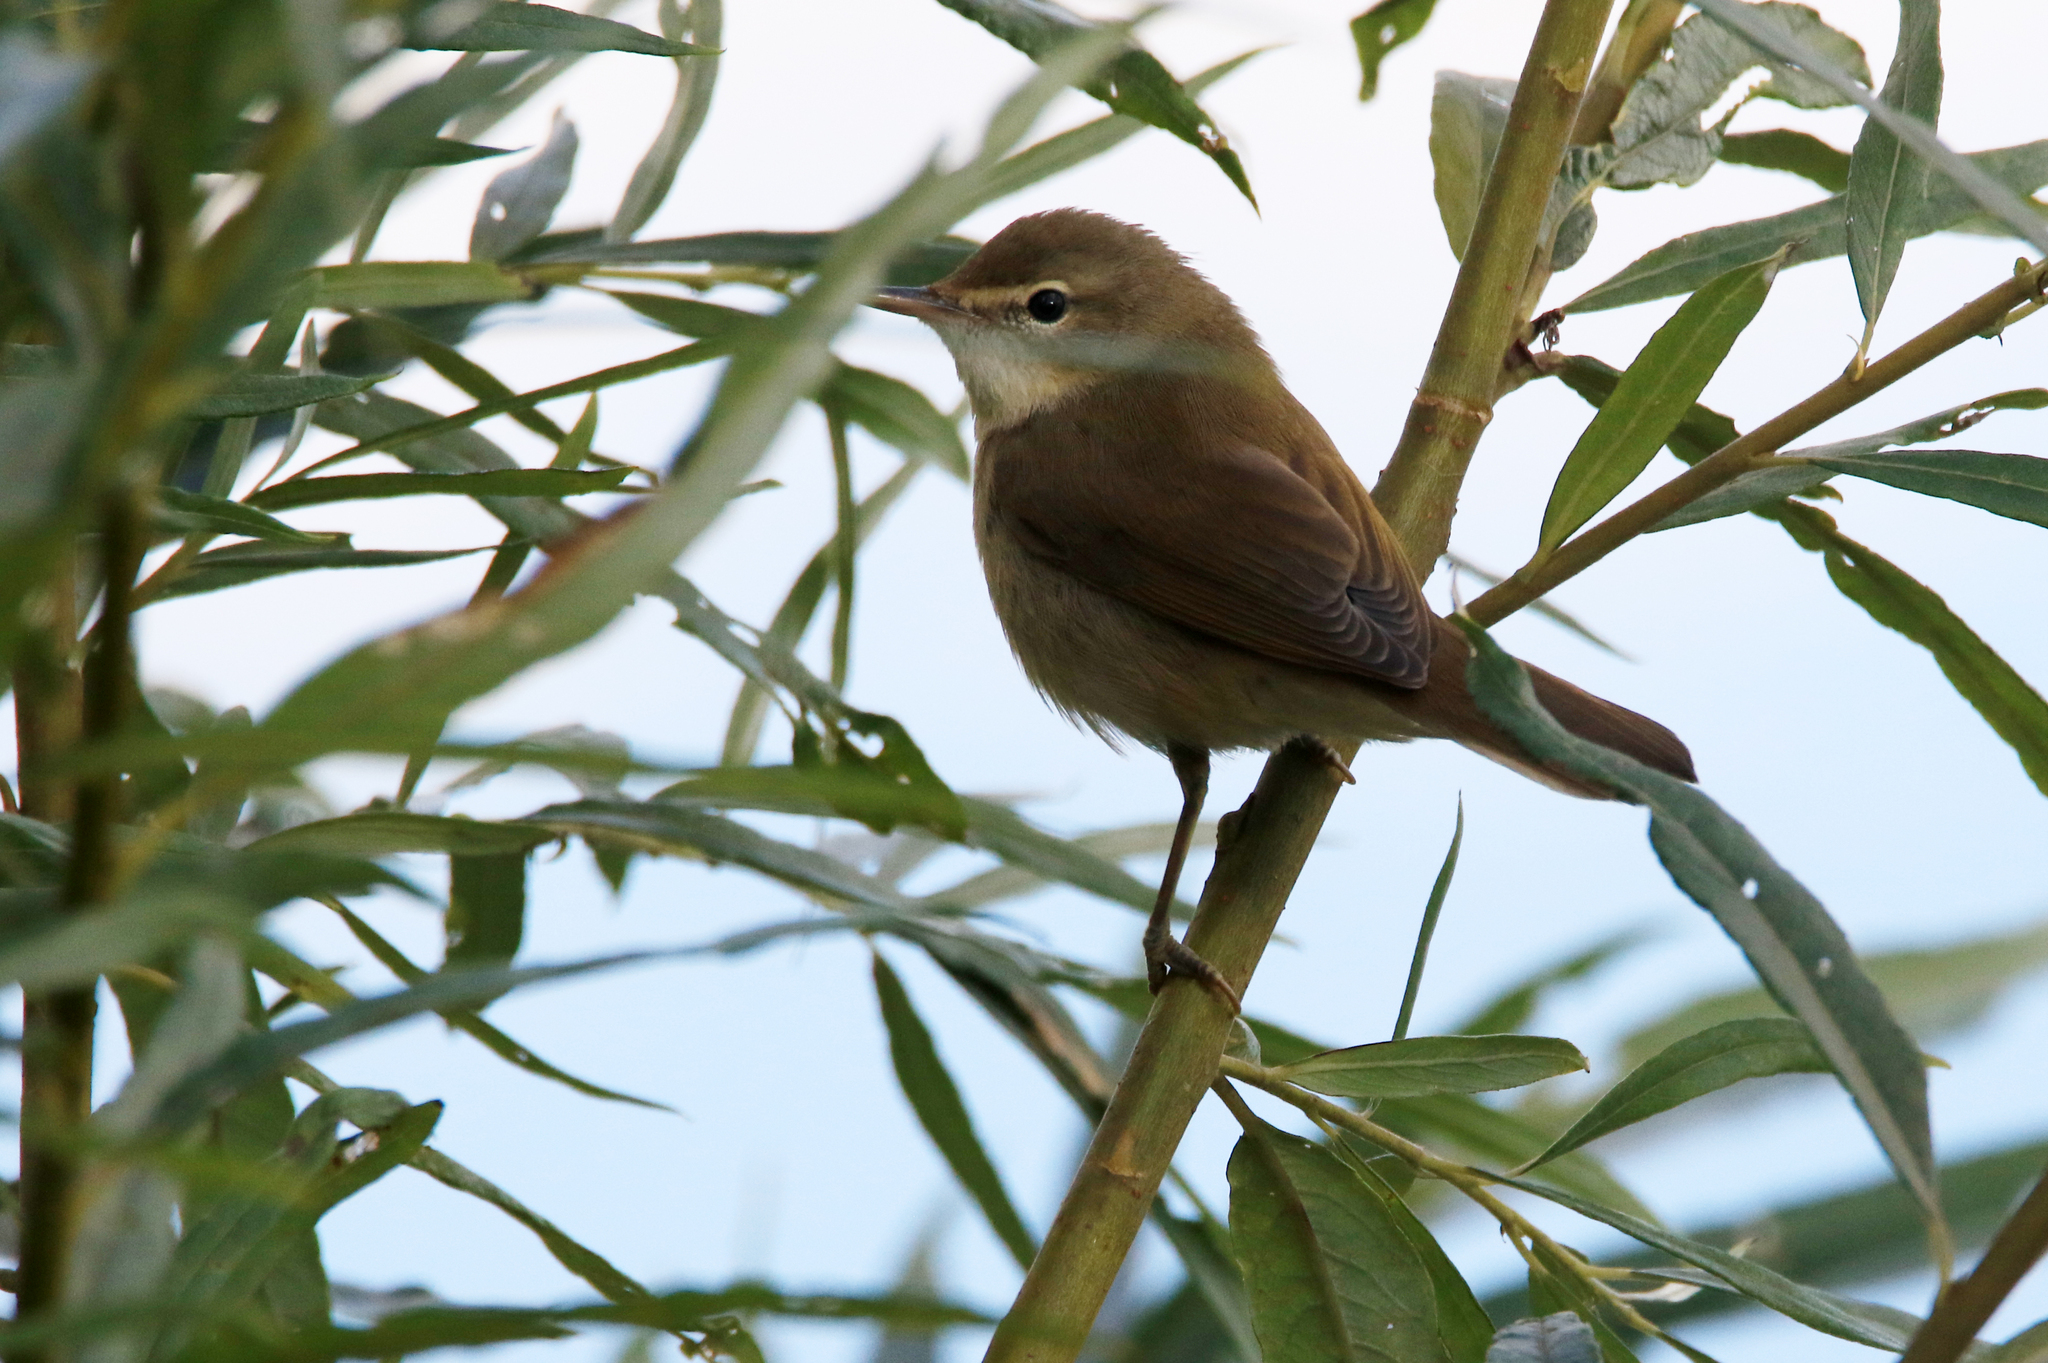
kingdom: Animalia
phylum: Chordata
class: Aves
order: Passeriformes
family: Acrocephalidae
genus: Acrocephalus
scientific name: Acrocephalus dumetorum
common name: Blyth's reed warbler
